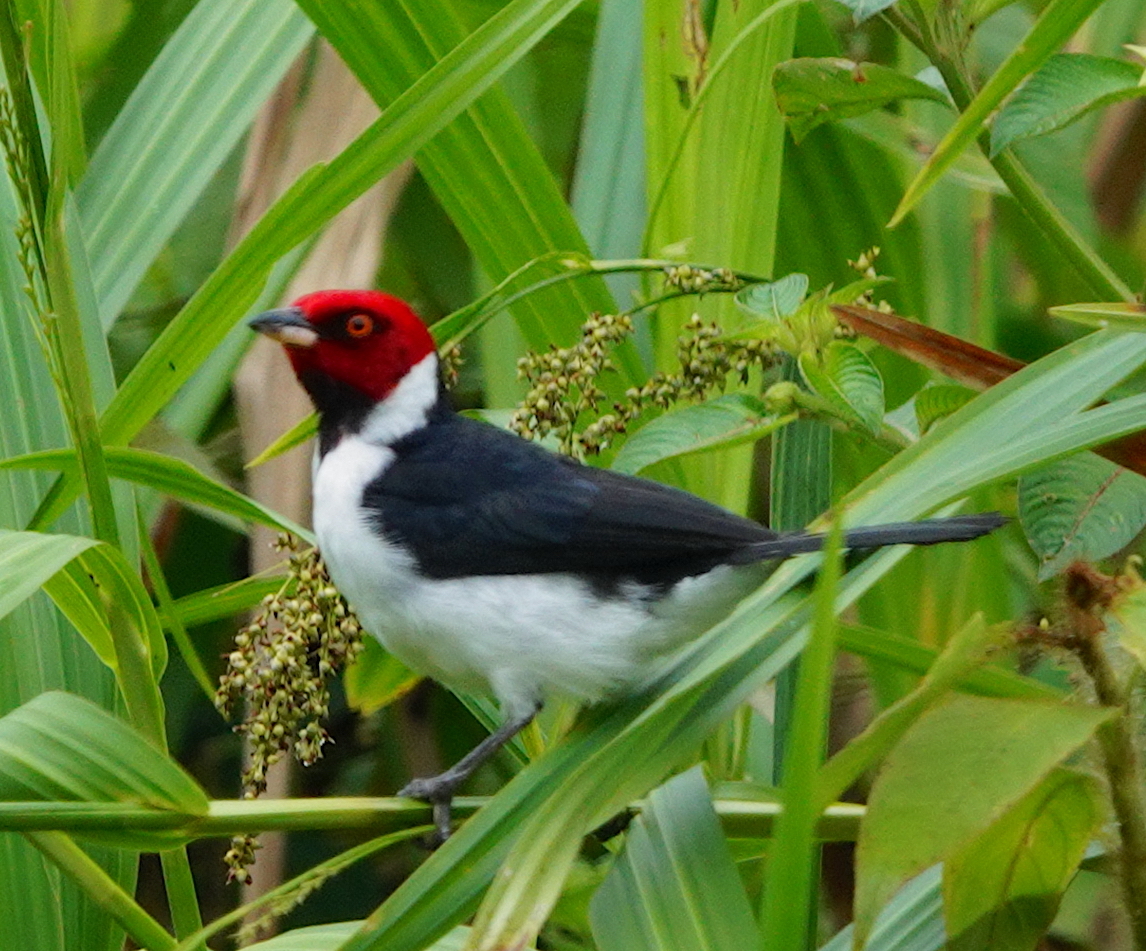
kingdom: Animalia
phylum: Chordata
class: Aves
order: Passeriformes
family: Thraupidae
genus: Paroaria
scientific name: Paroaria gularis
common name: Red-capped cardinal
